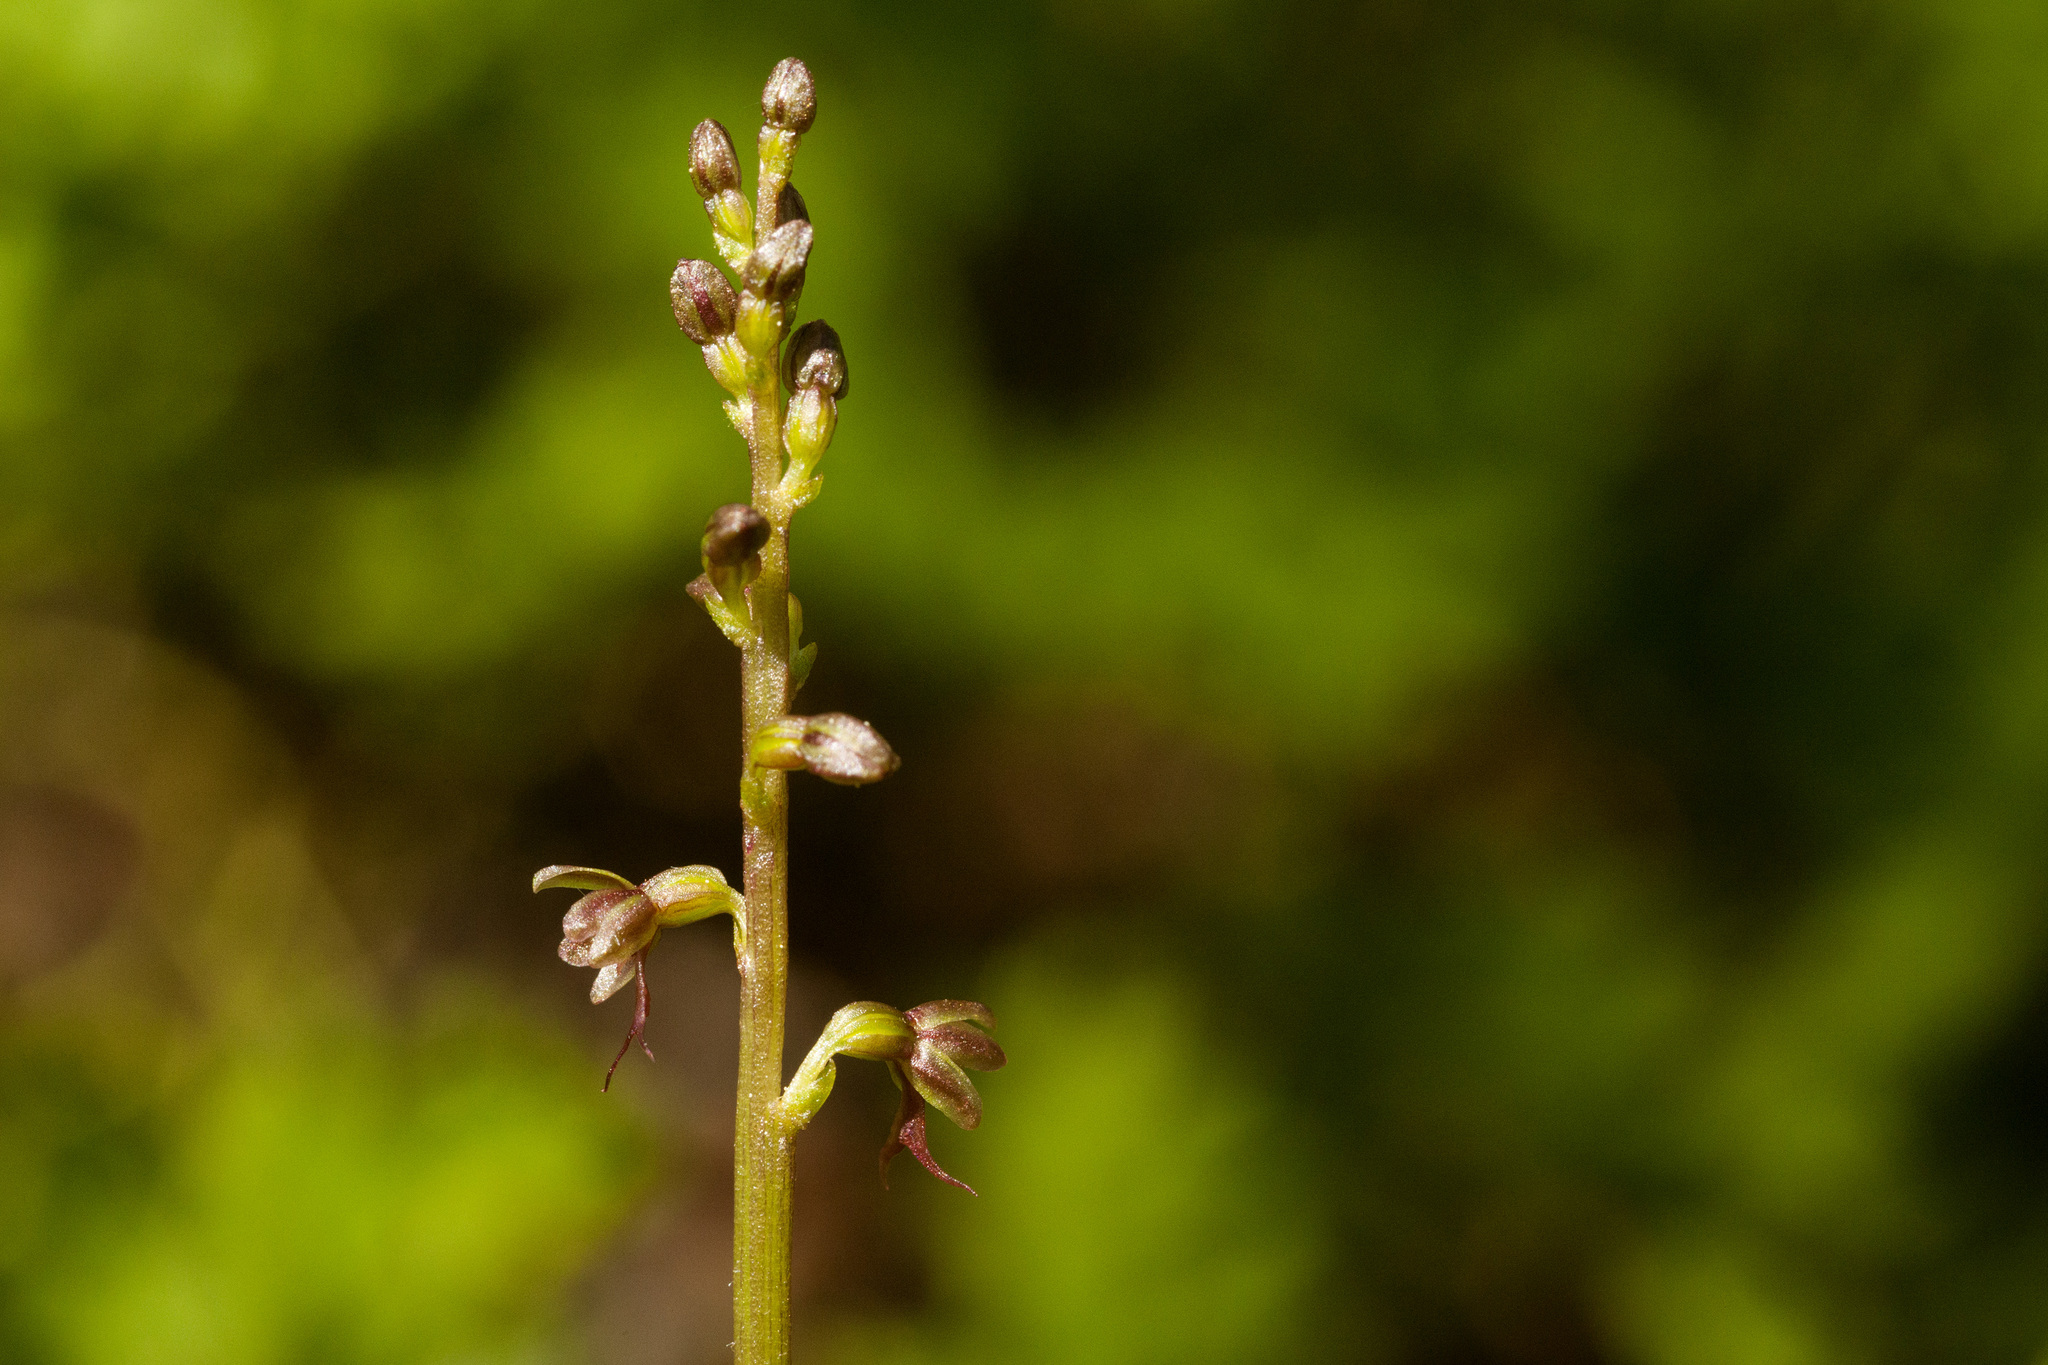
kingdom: Plantae
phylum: Tracheophyta
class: Liliopsida
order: Asparagales
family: Orchidaceae
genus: Neottia
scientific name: Neottia cordata
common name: Lesser twayblade
